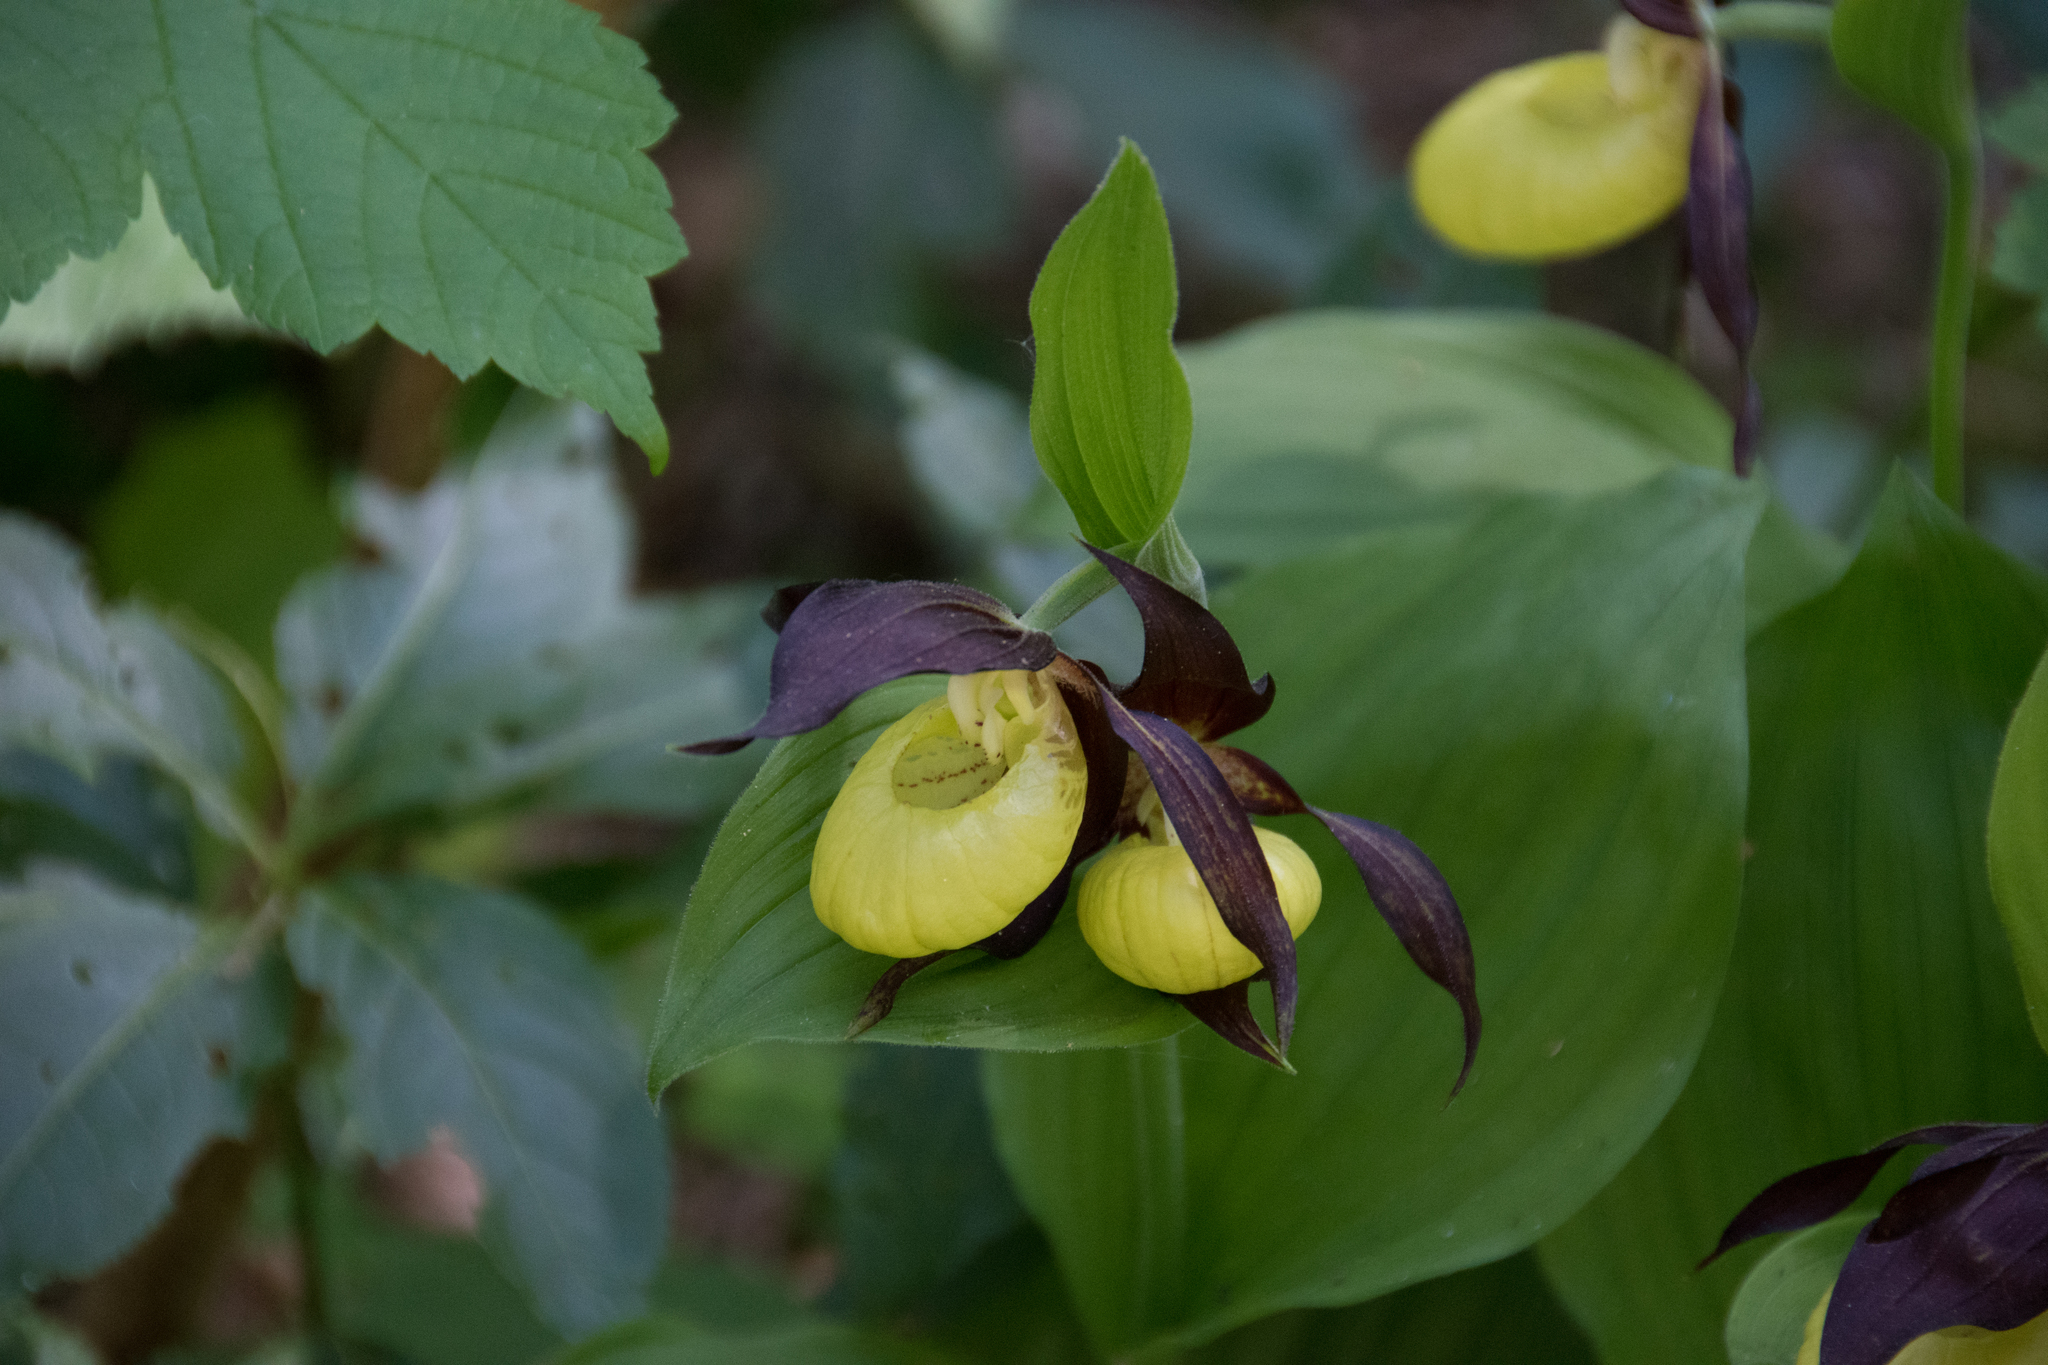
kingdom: Plantae
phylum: Tracheophyta
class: Liliopsida
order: Asparagales
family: Orchidaceae
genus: Cypripedium
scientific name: Cypripedium calceolus
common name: Lady's-slipper
